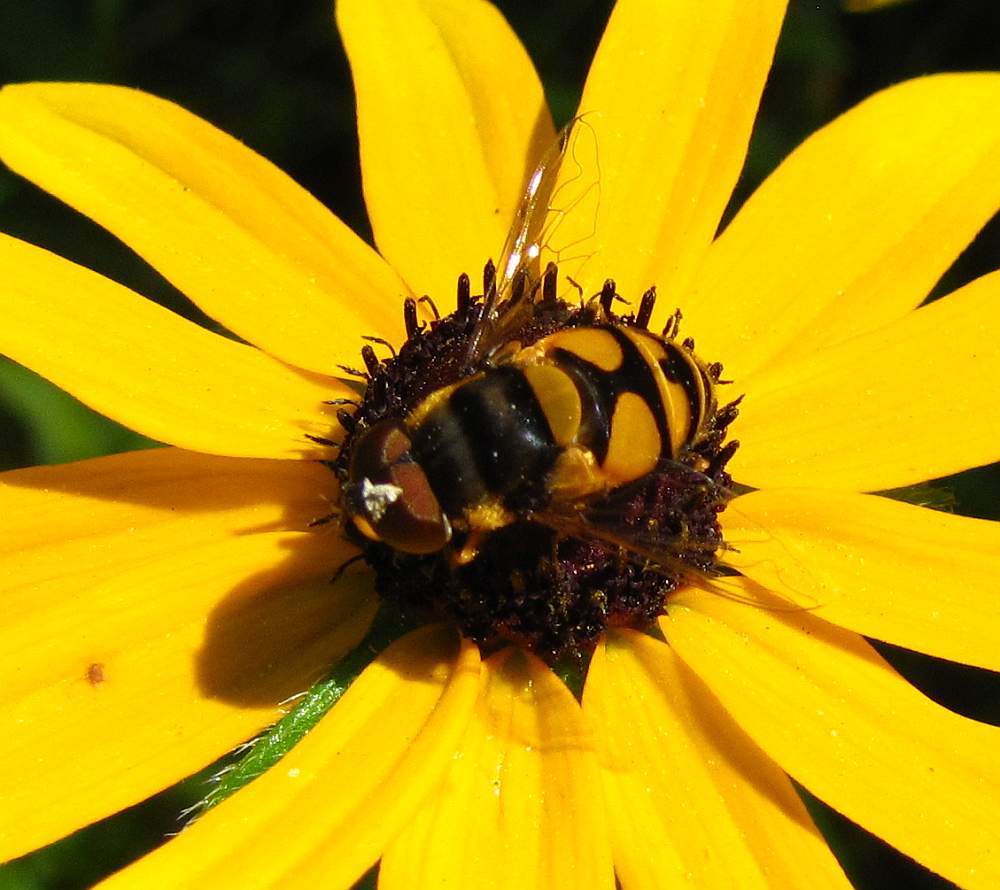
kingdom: Animalia
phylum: Arthropoda
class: Insecta
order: Diptera
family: Syrphidae
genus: Eristalis
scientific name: Eristalis transversa
